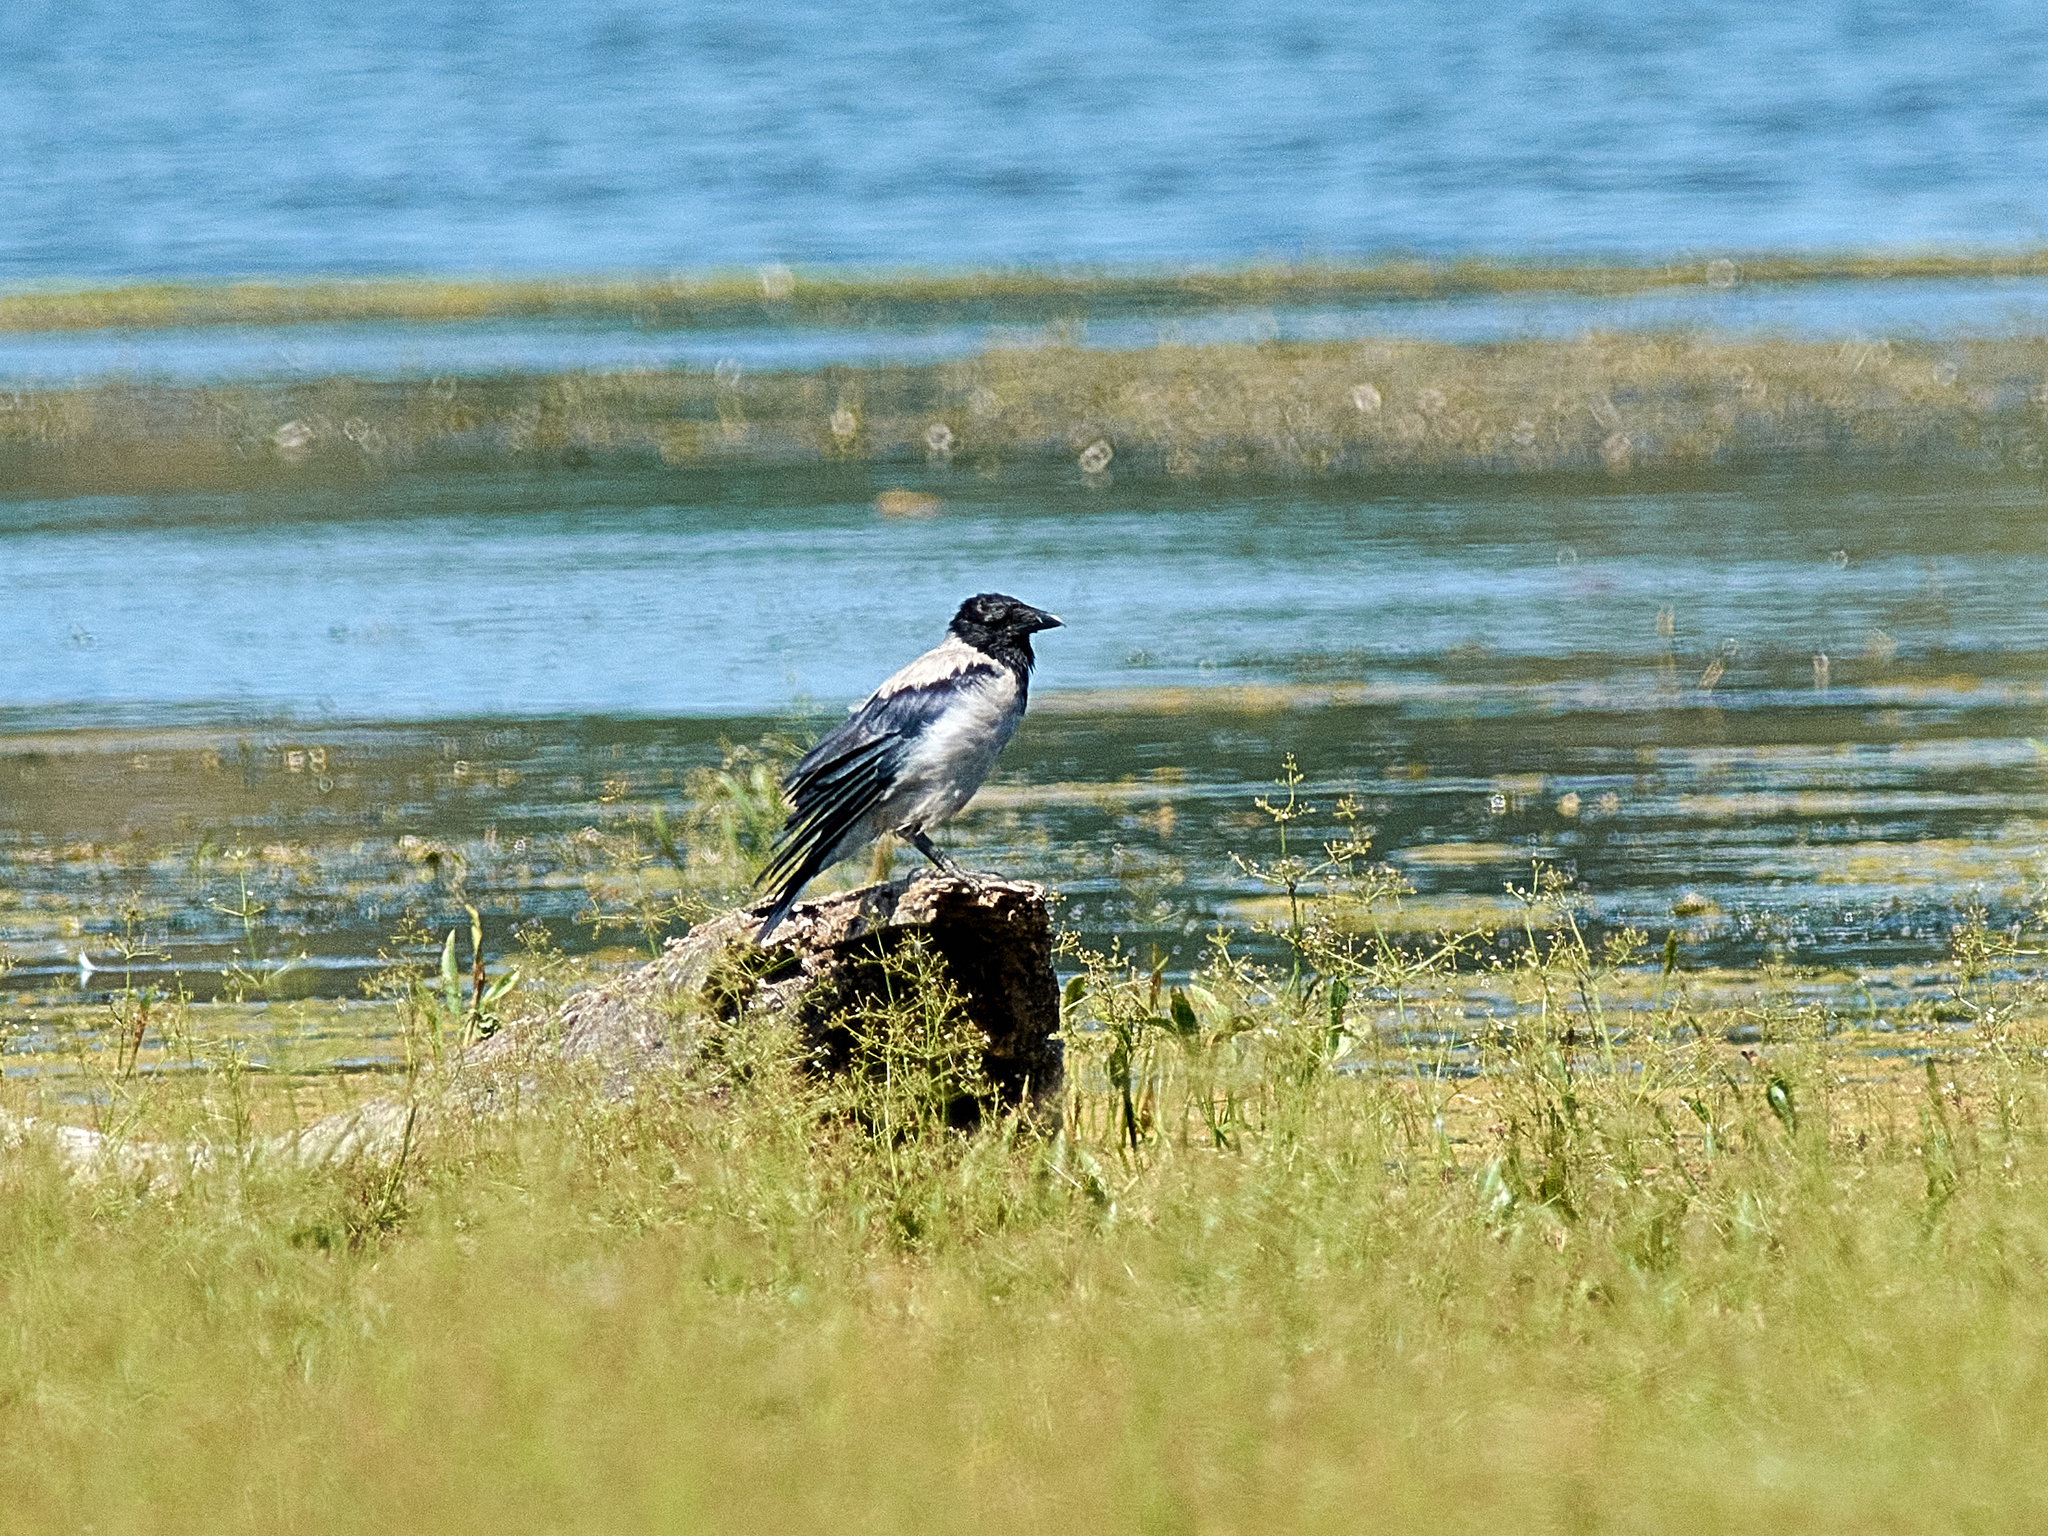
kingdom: Animalia
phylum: Chordata
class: Aves
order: Passeriformes
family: Corvidae
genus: Corvus
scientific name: Corvus cornix
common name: Hooded crow
